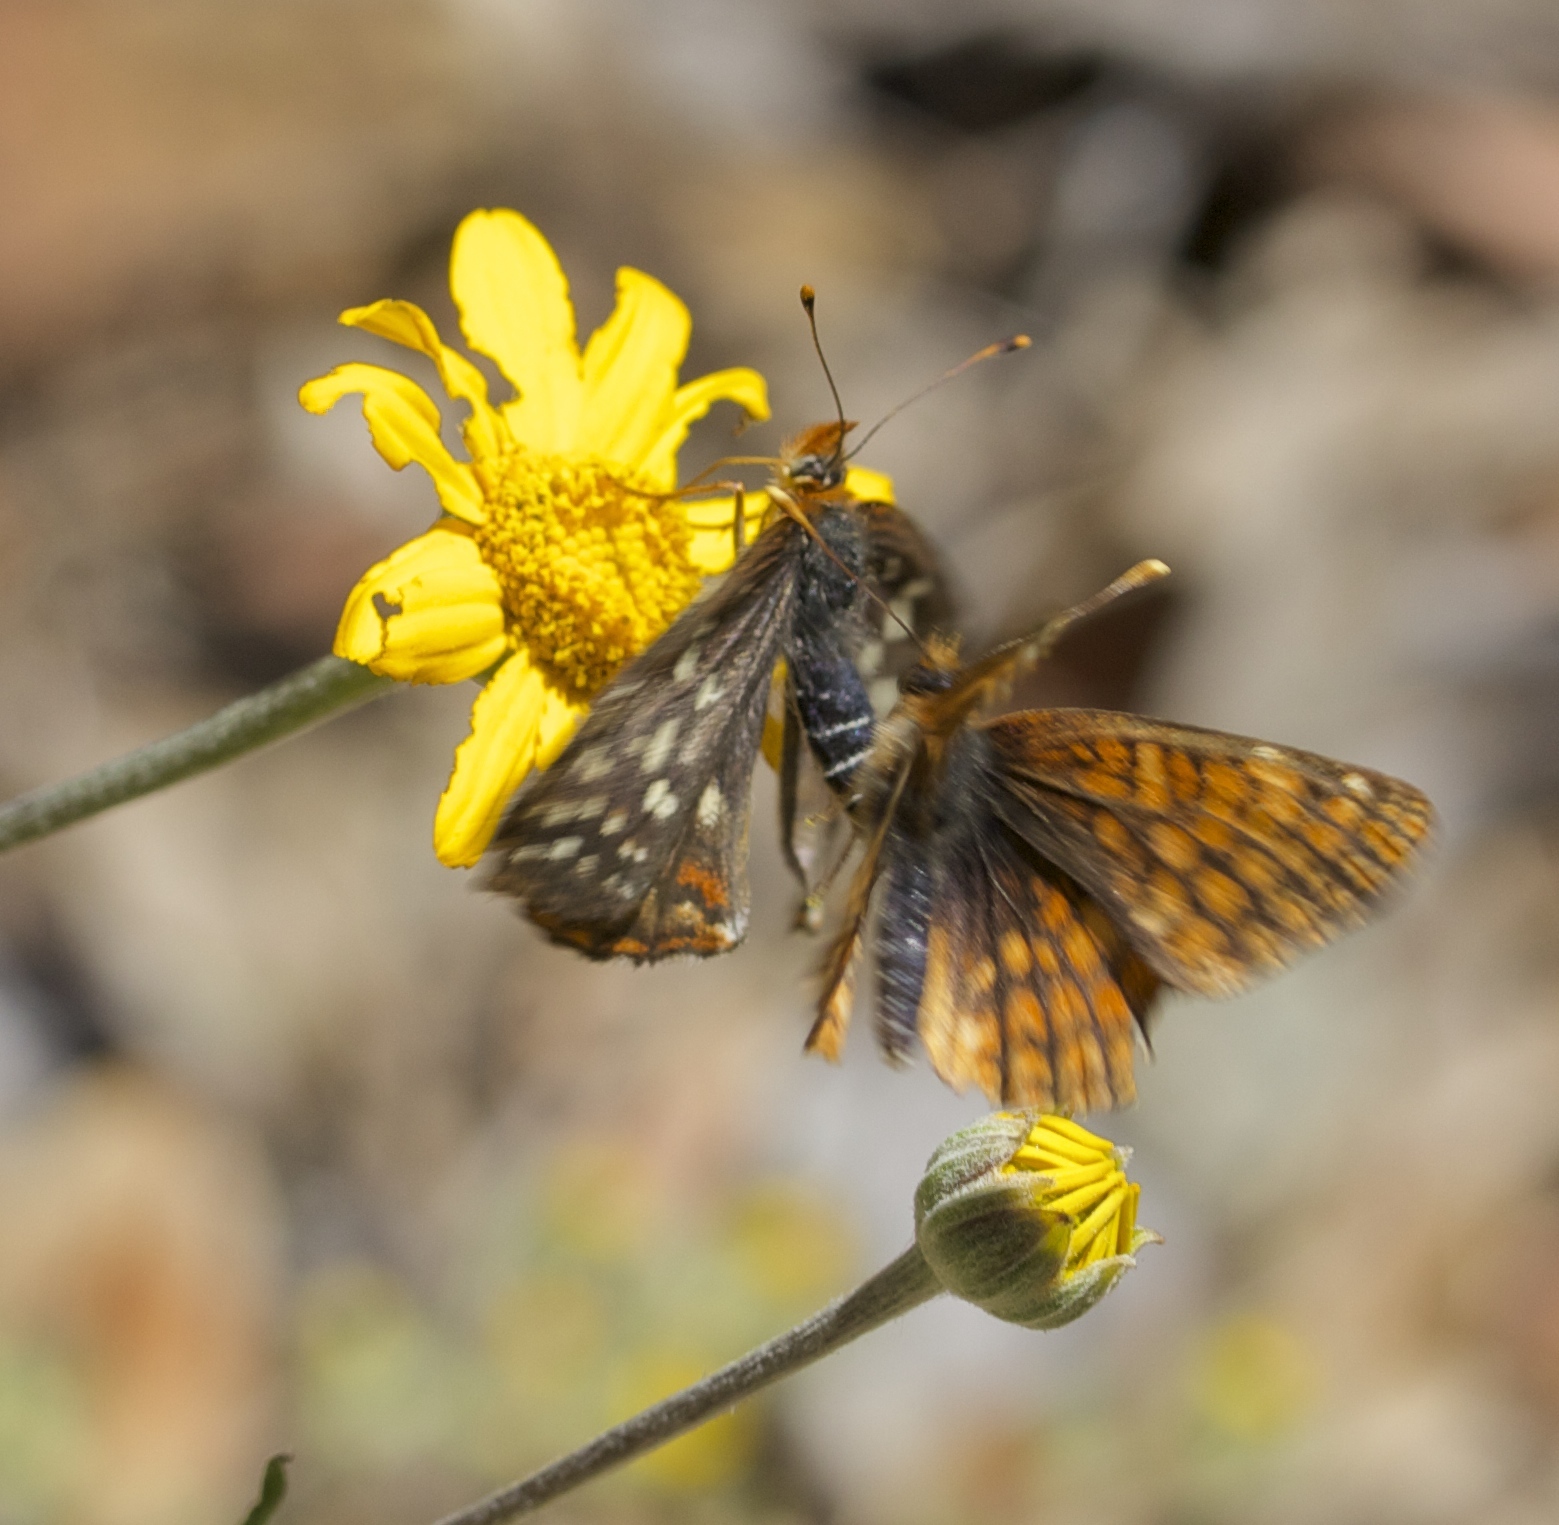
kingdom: Animalia
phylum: Arthropoda
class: Insecta
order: Lepidoptera
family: Nymphalidae
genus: Chlosyne
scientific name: Chlosyne palla
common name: Northern checkerspot
